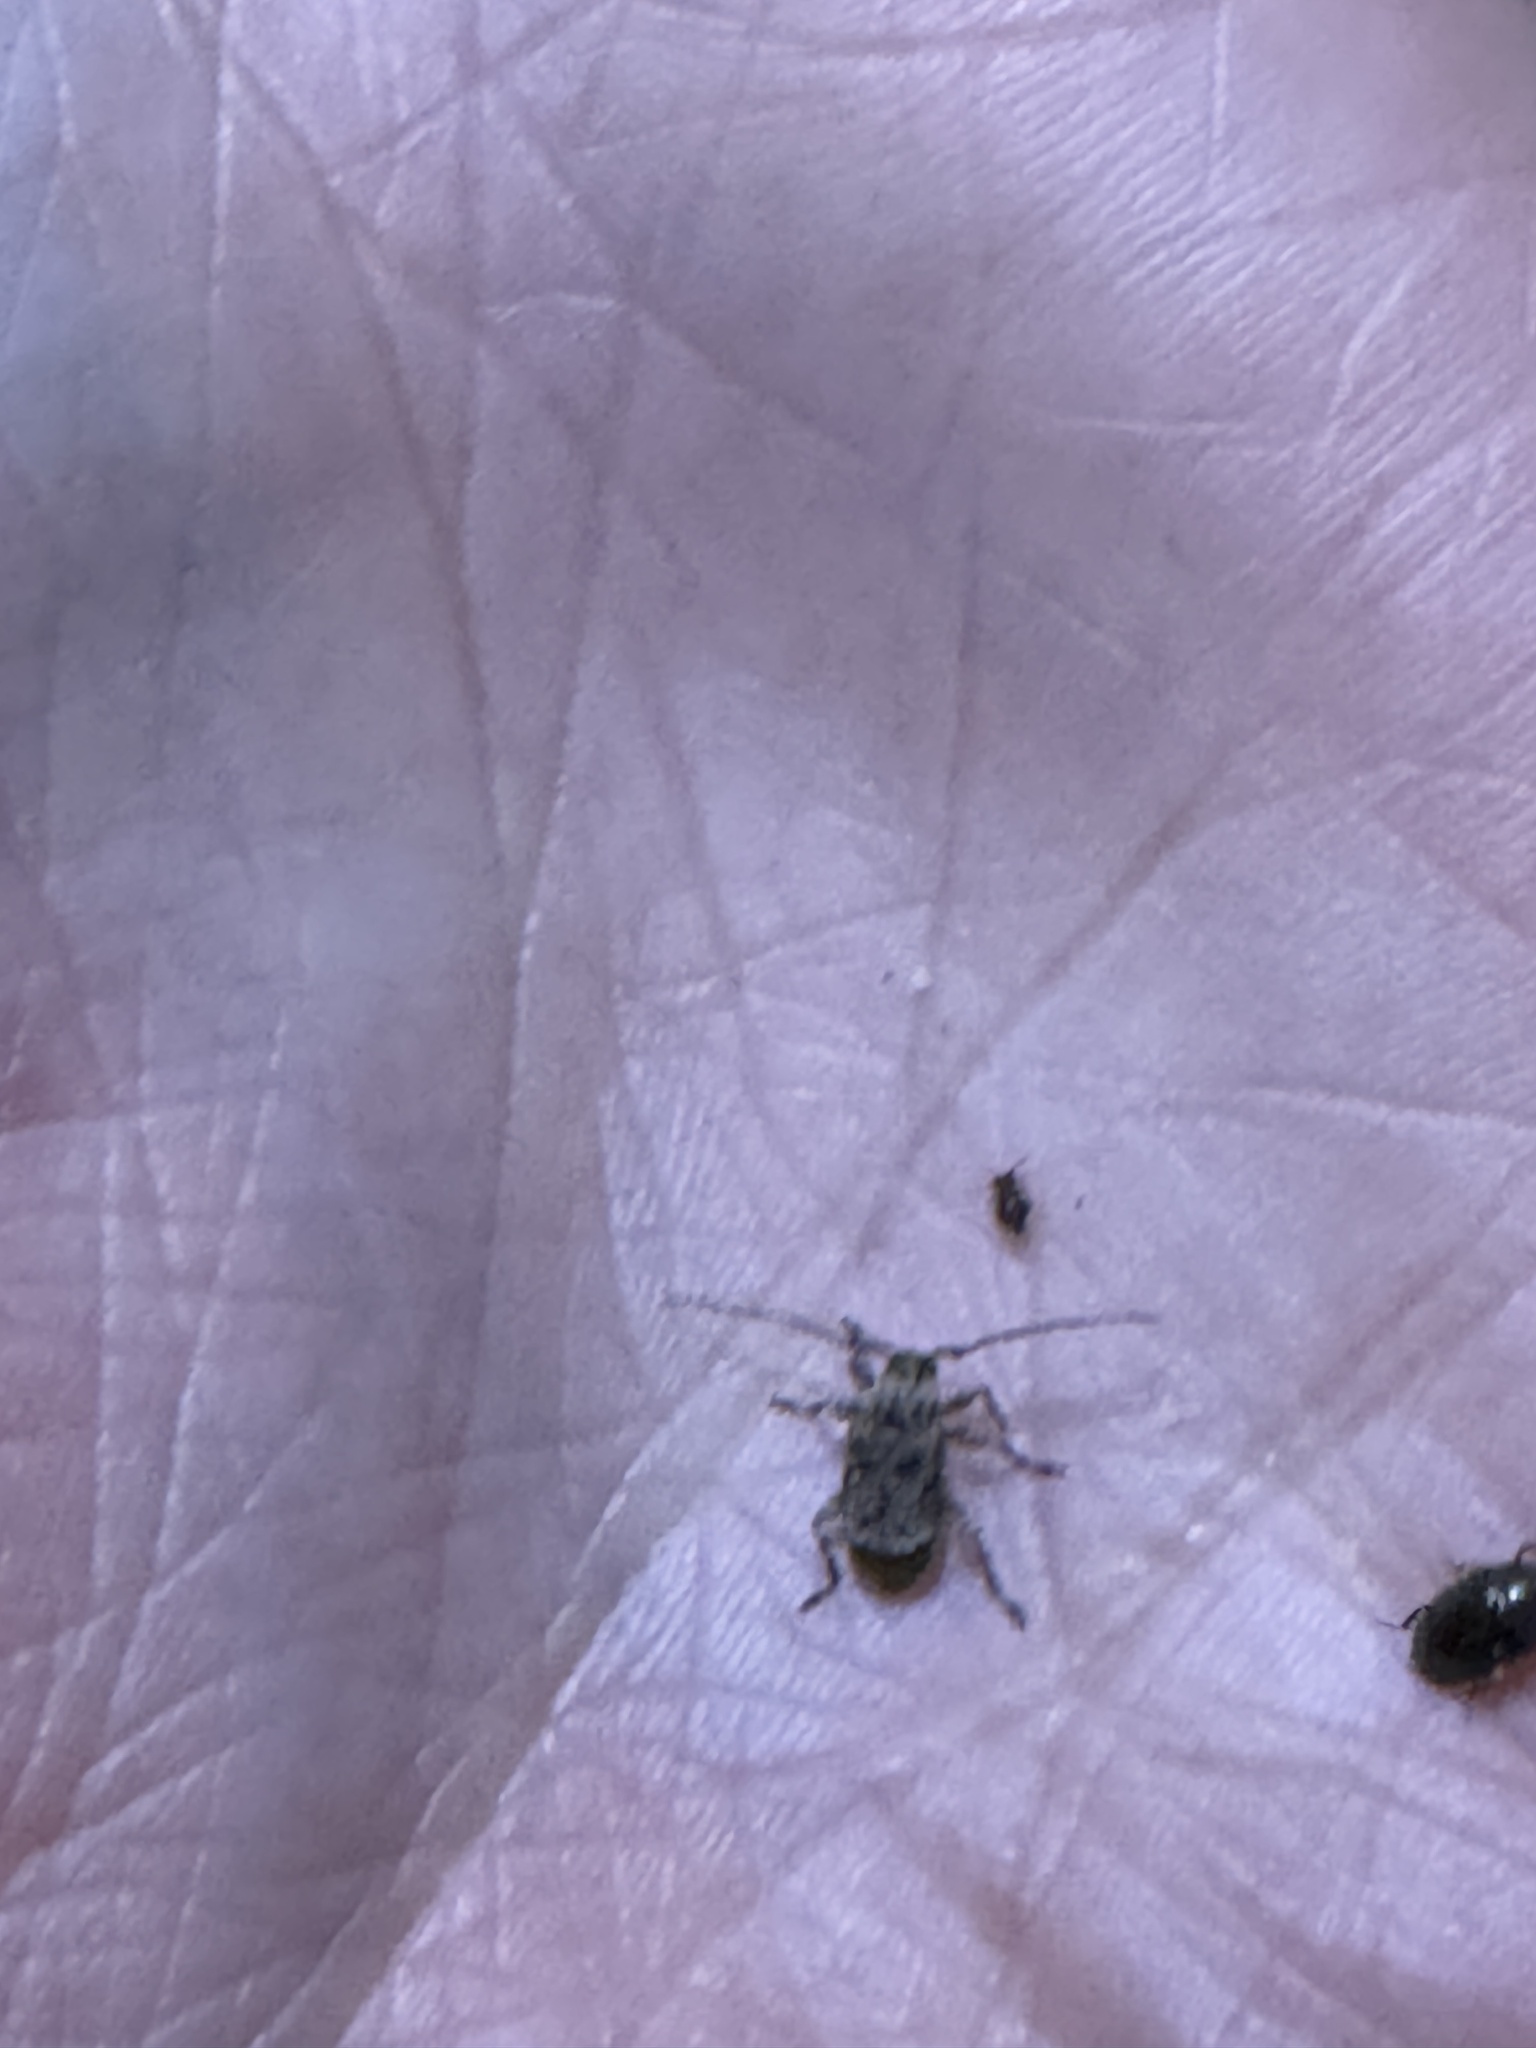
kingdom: Animalia
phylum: Arthropoda
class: Insecta
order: Coleoptera
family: Cerambycidae
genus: Leptostylus
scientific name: Leptostylus transversus
